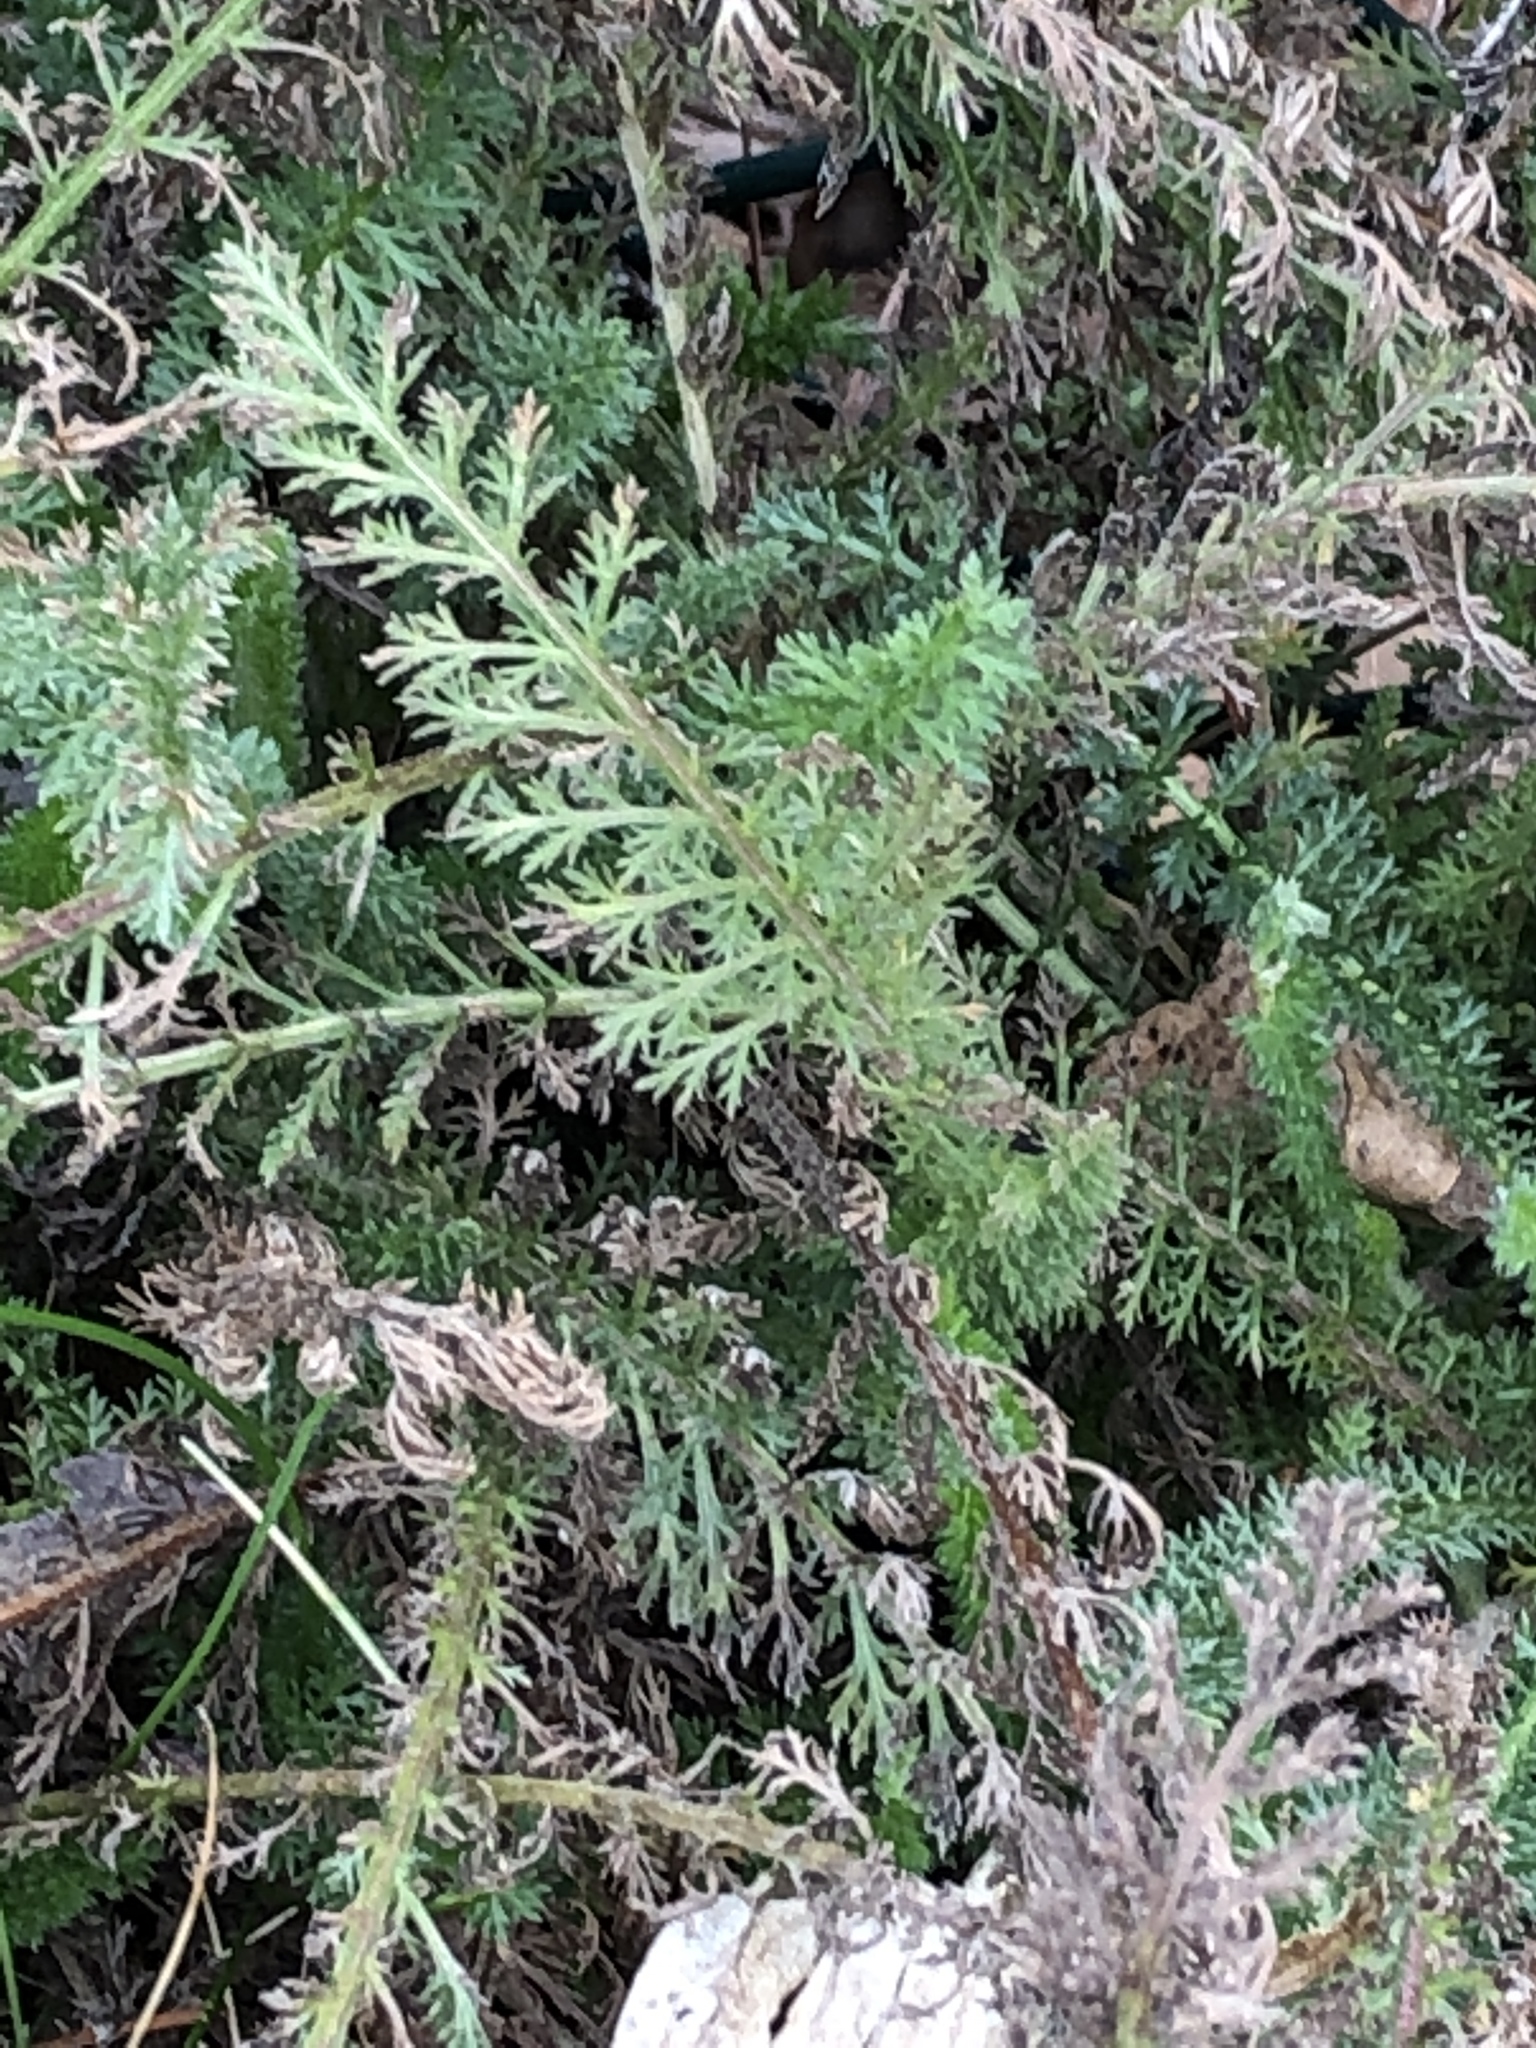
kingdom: Plantae
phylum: Tracheophyta
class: Magnoliopsida
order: Asterales
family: Asteraceae
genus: Achillea
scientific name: Achillea millefolium
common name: Yarrow
